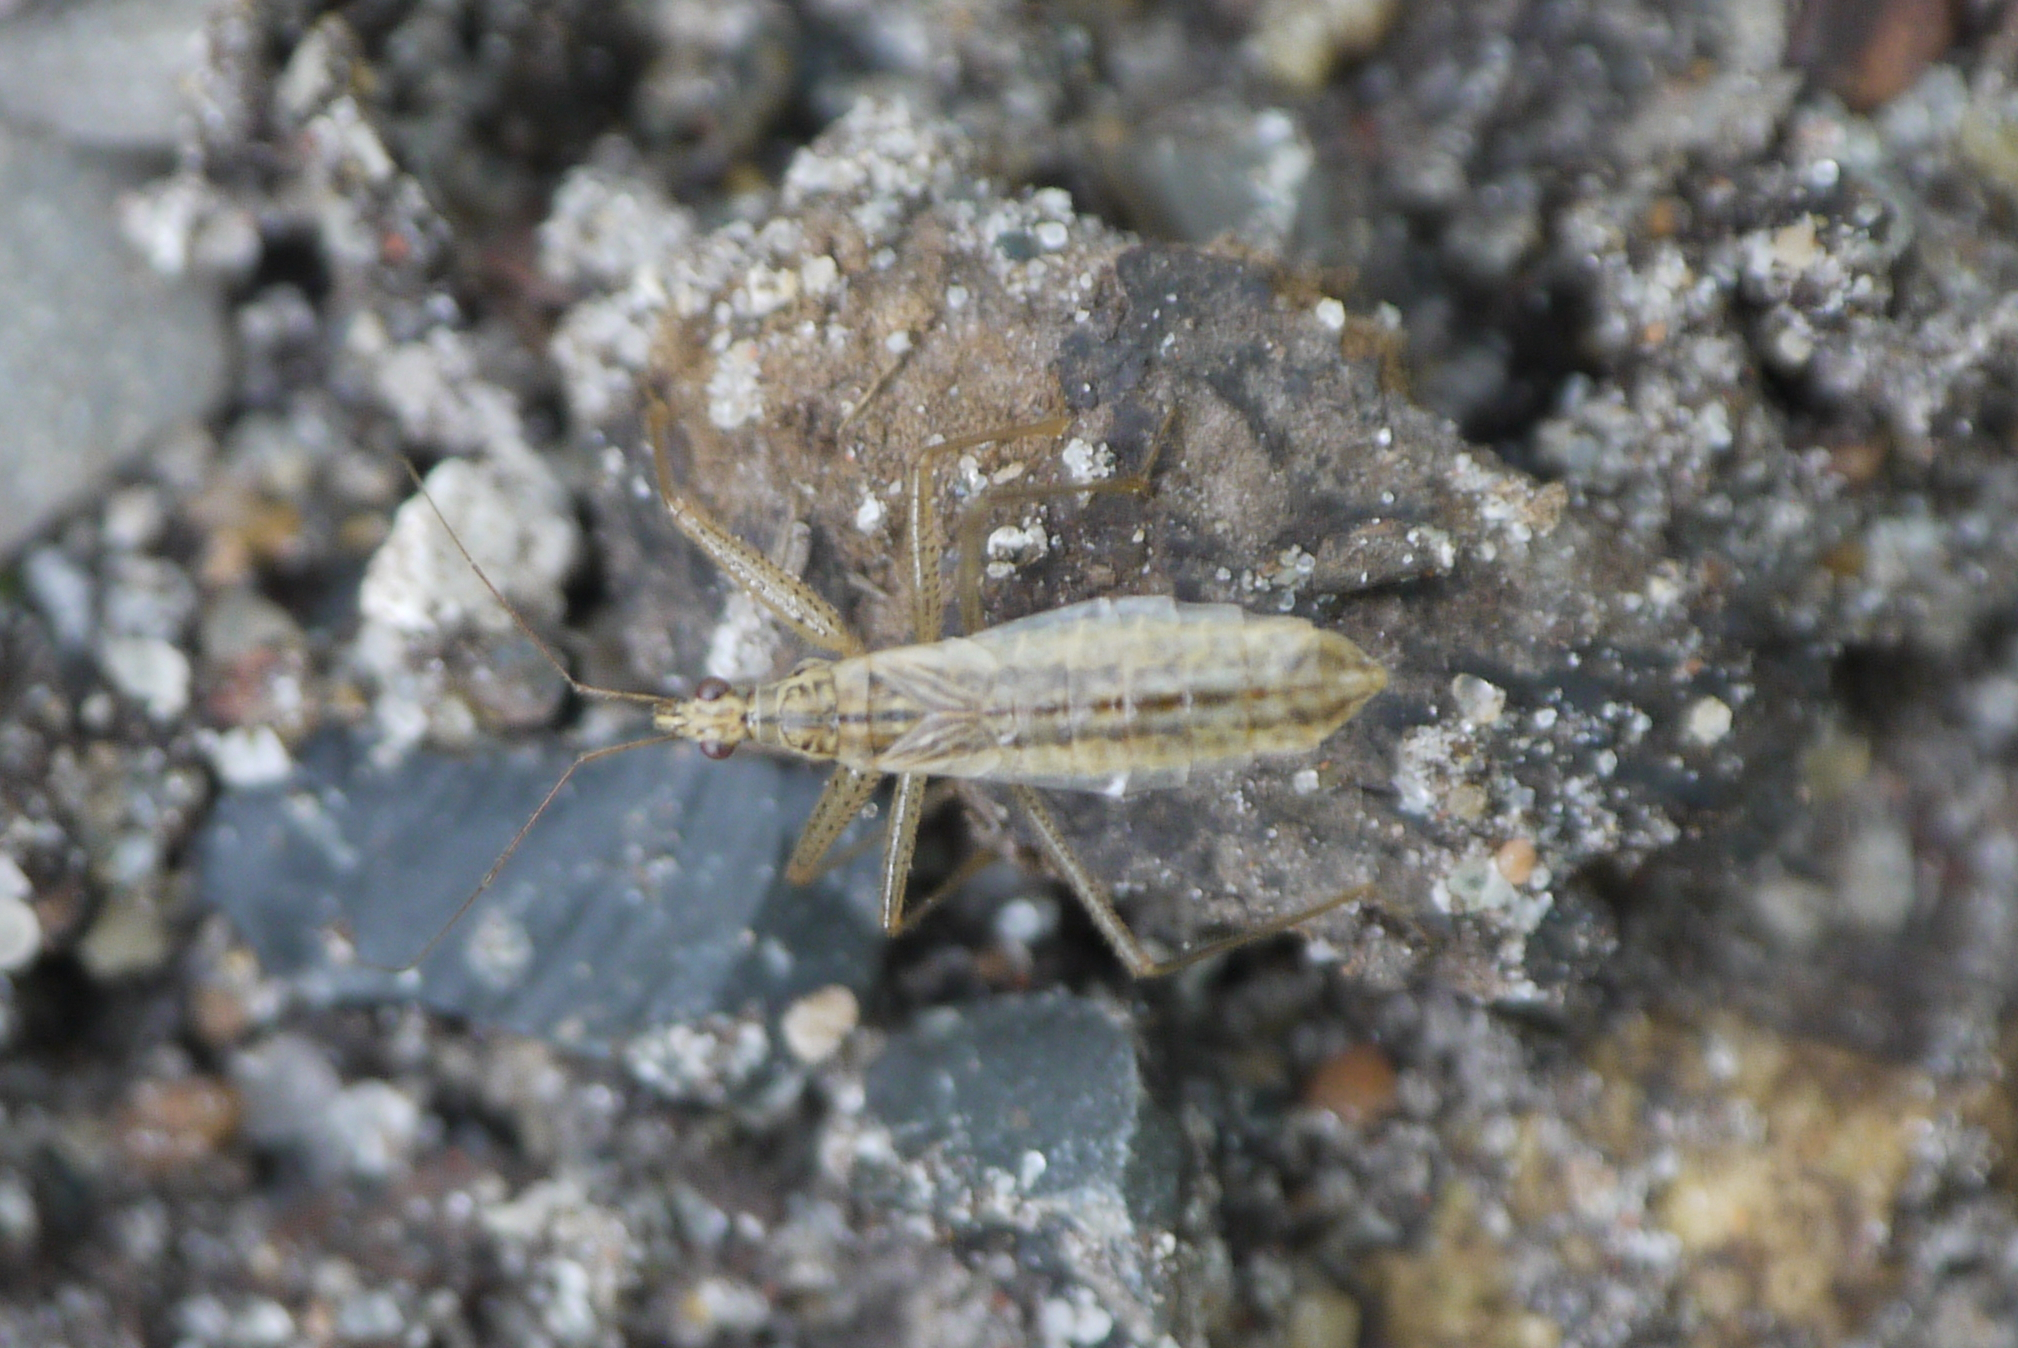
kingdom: Animalia
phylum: Arthropoda
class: Insecta
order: Hemiptera
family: Nabidae
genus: Nabis
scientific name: Nabis limbatus
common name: Marsh damselbug
